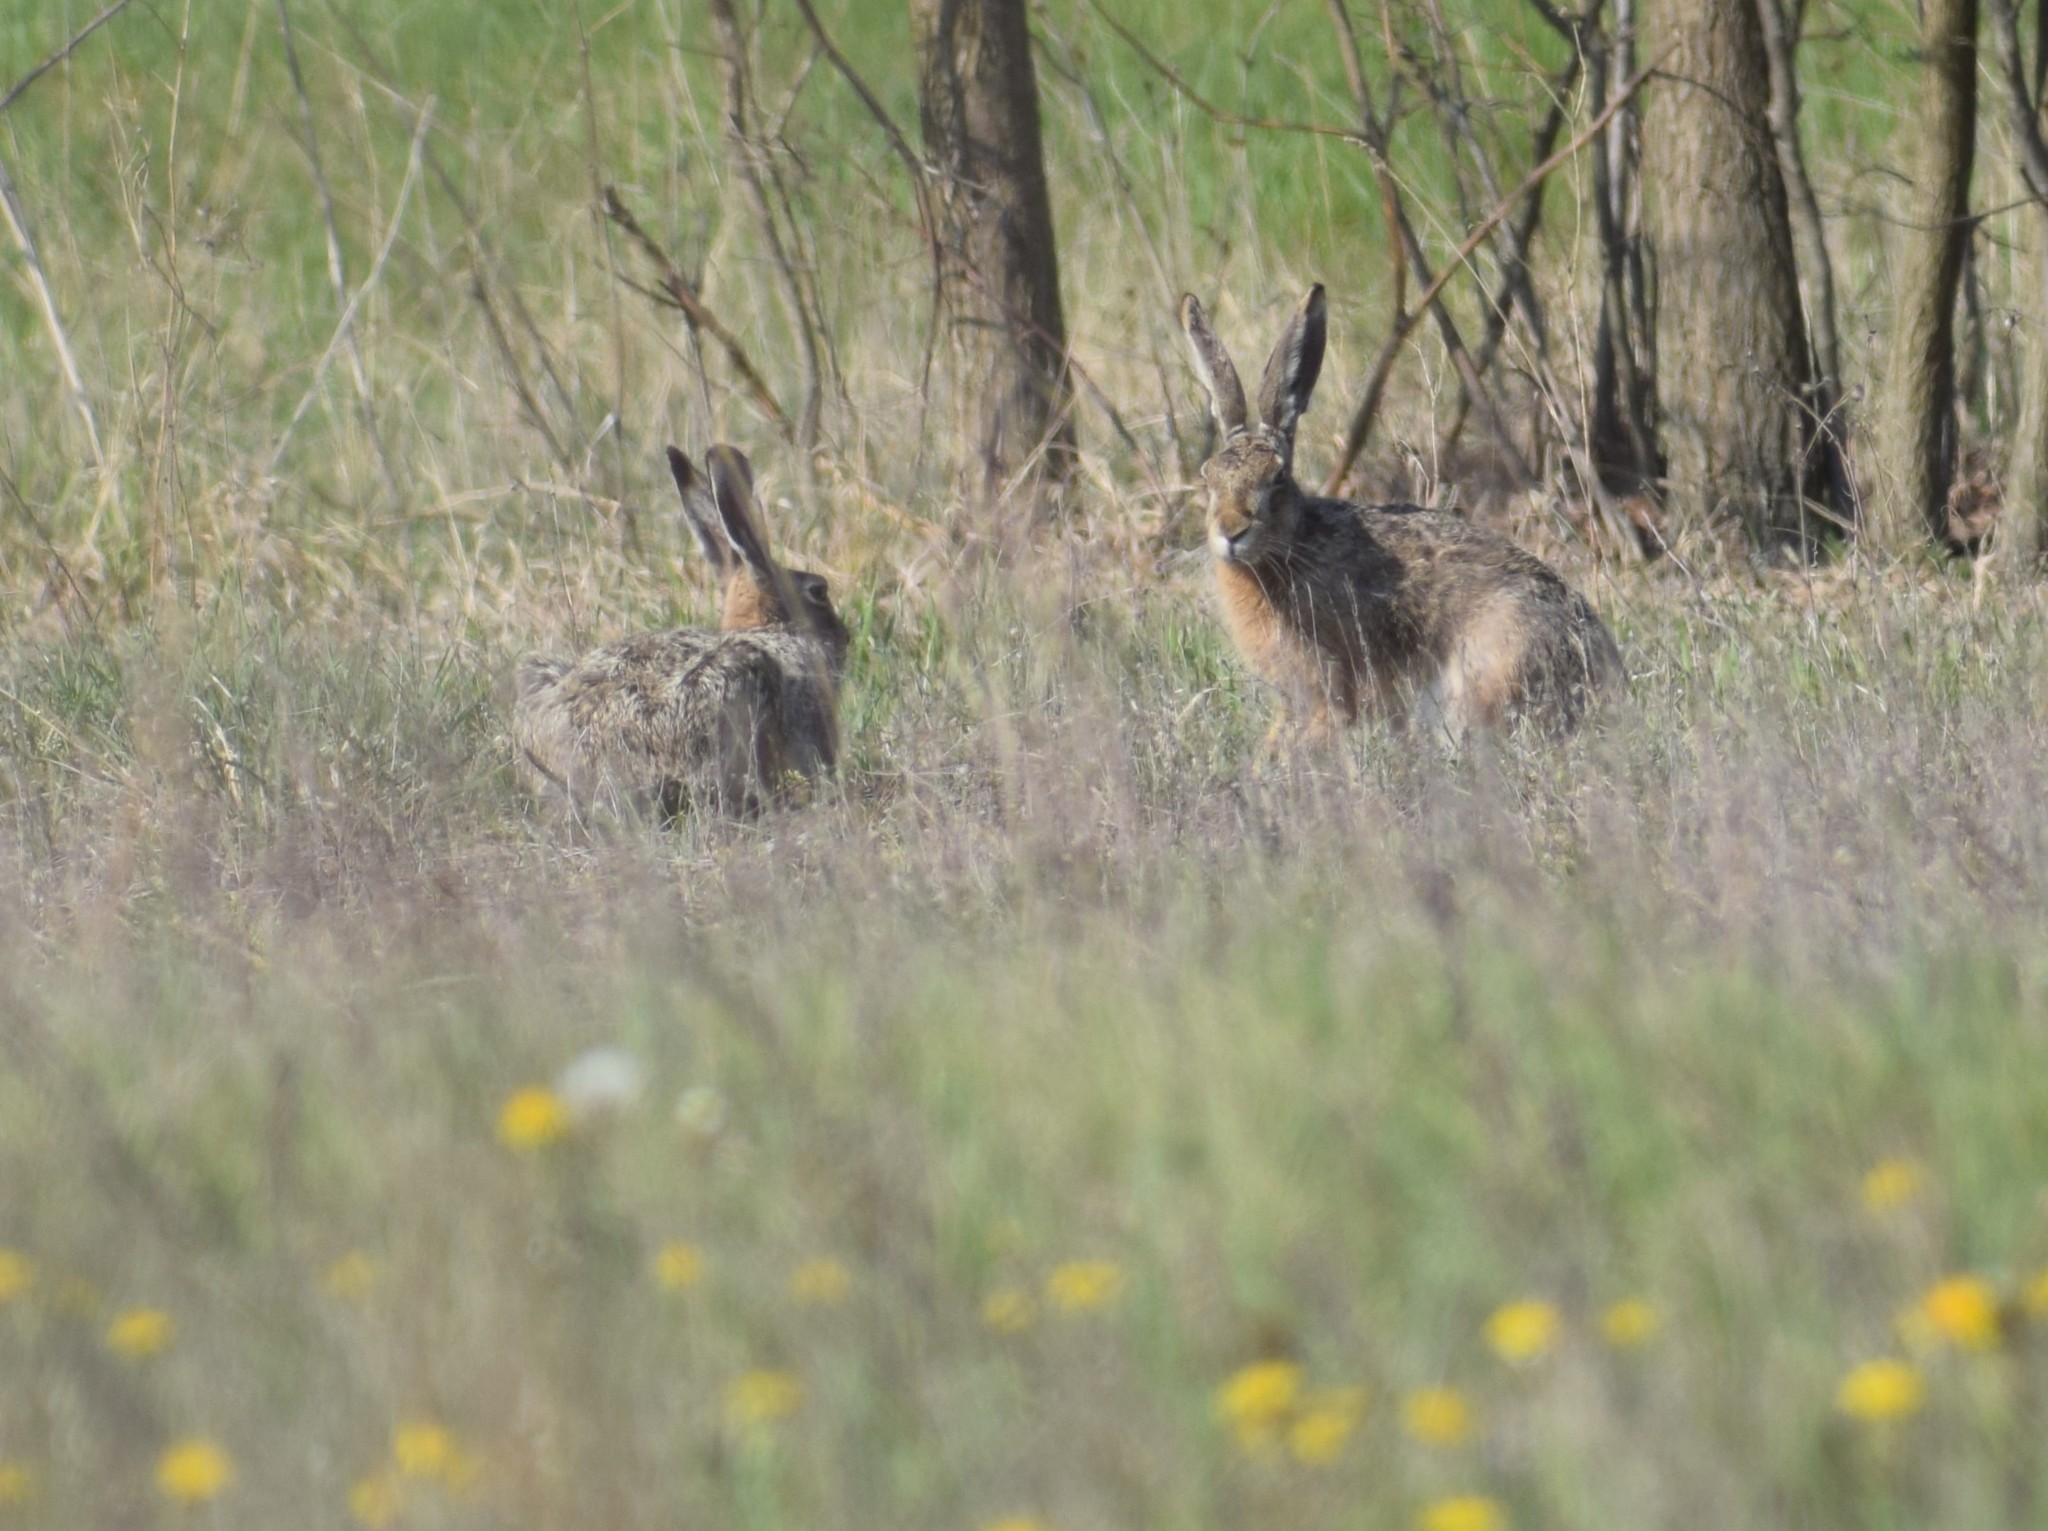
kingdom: Animalia
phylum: Chordata
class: Mammalia
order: Lagomorpha
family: Leporidae
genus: Lepus
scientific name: Lepus europaeus
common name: European hare
